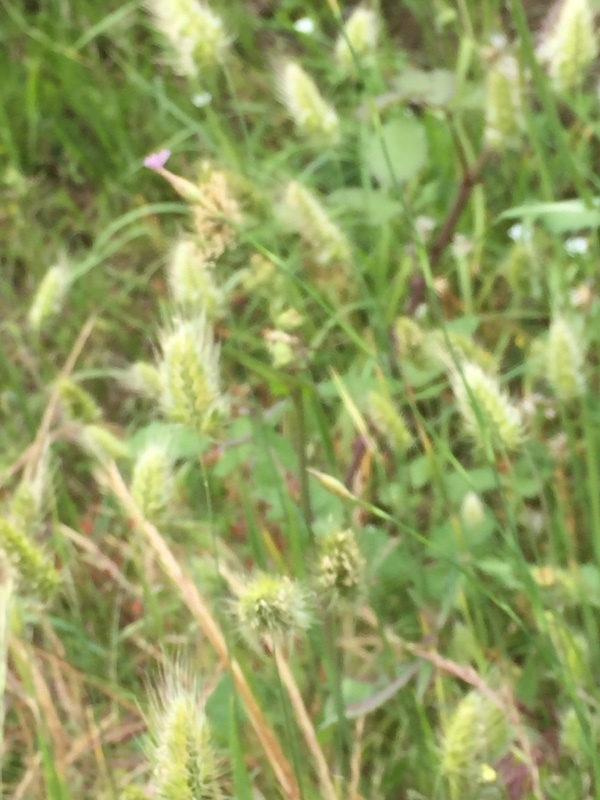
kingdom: Plantae
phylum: Tracheophyta
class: Liliopsida
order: Poales
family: Poaceae
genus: Cynosurus
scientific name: Cynosurus echinatus
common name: Rough dog's-tail
